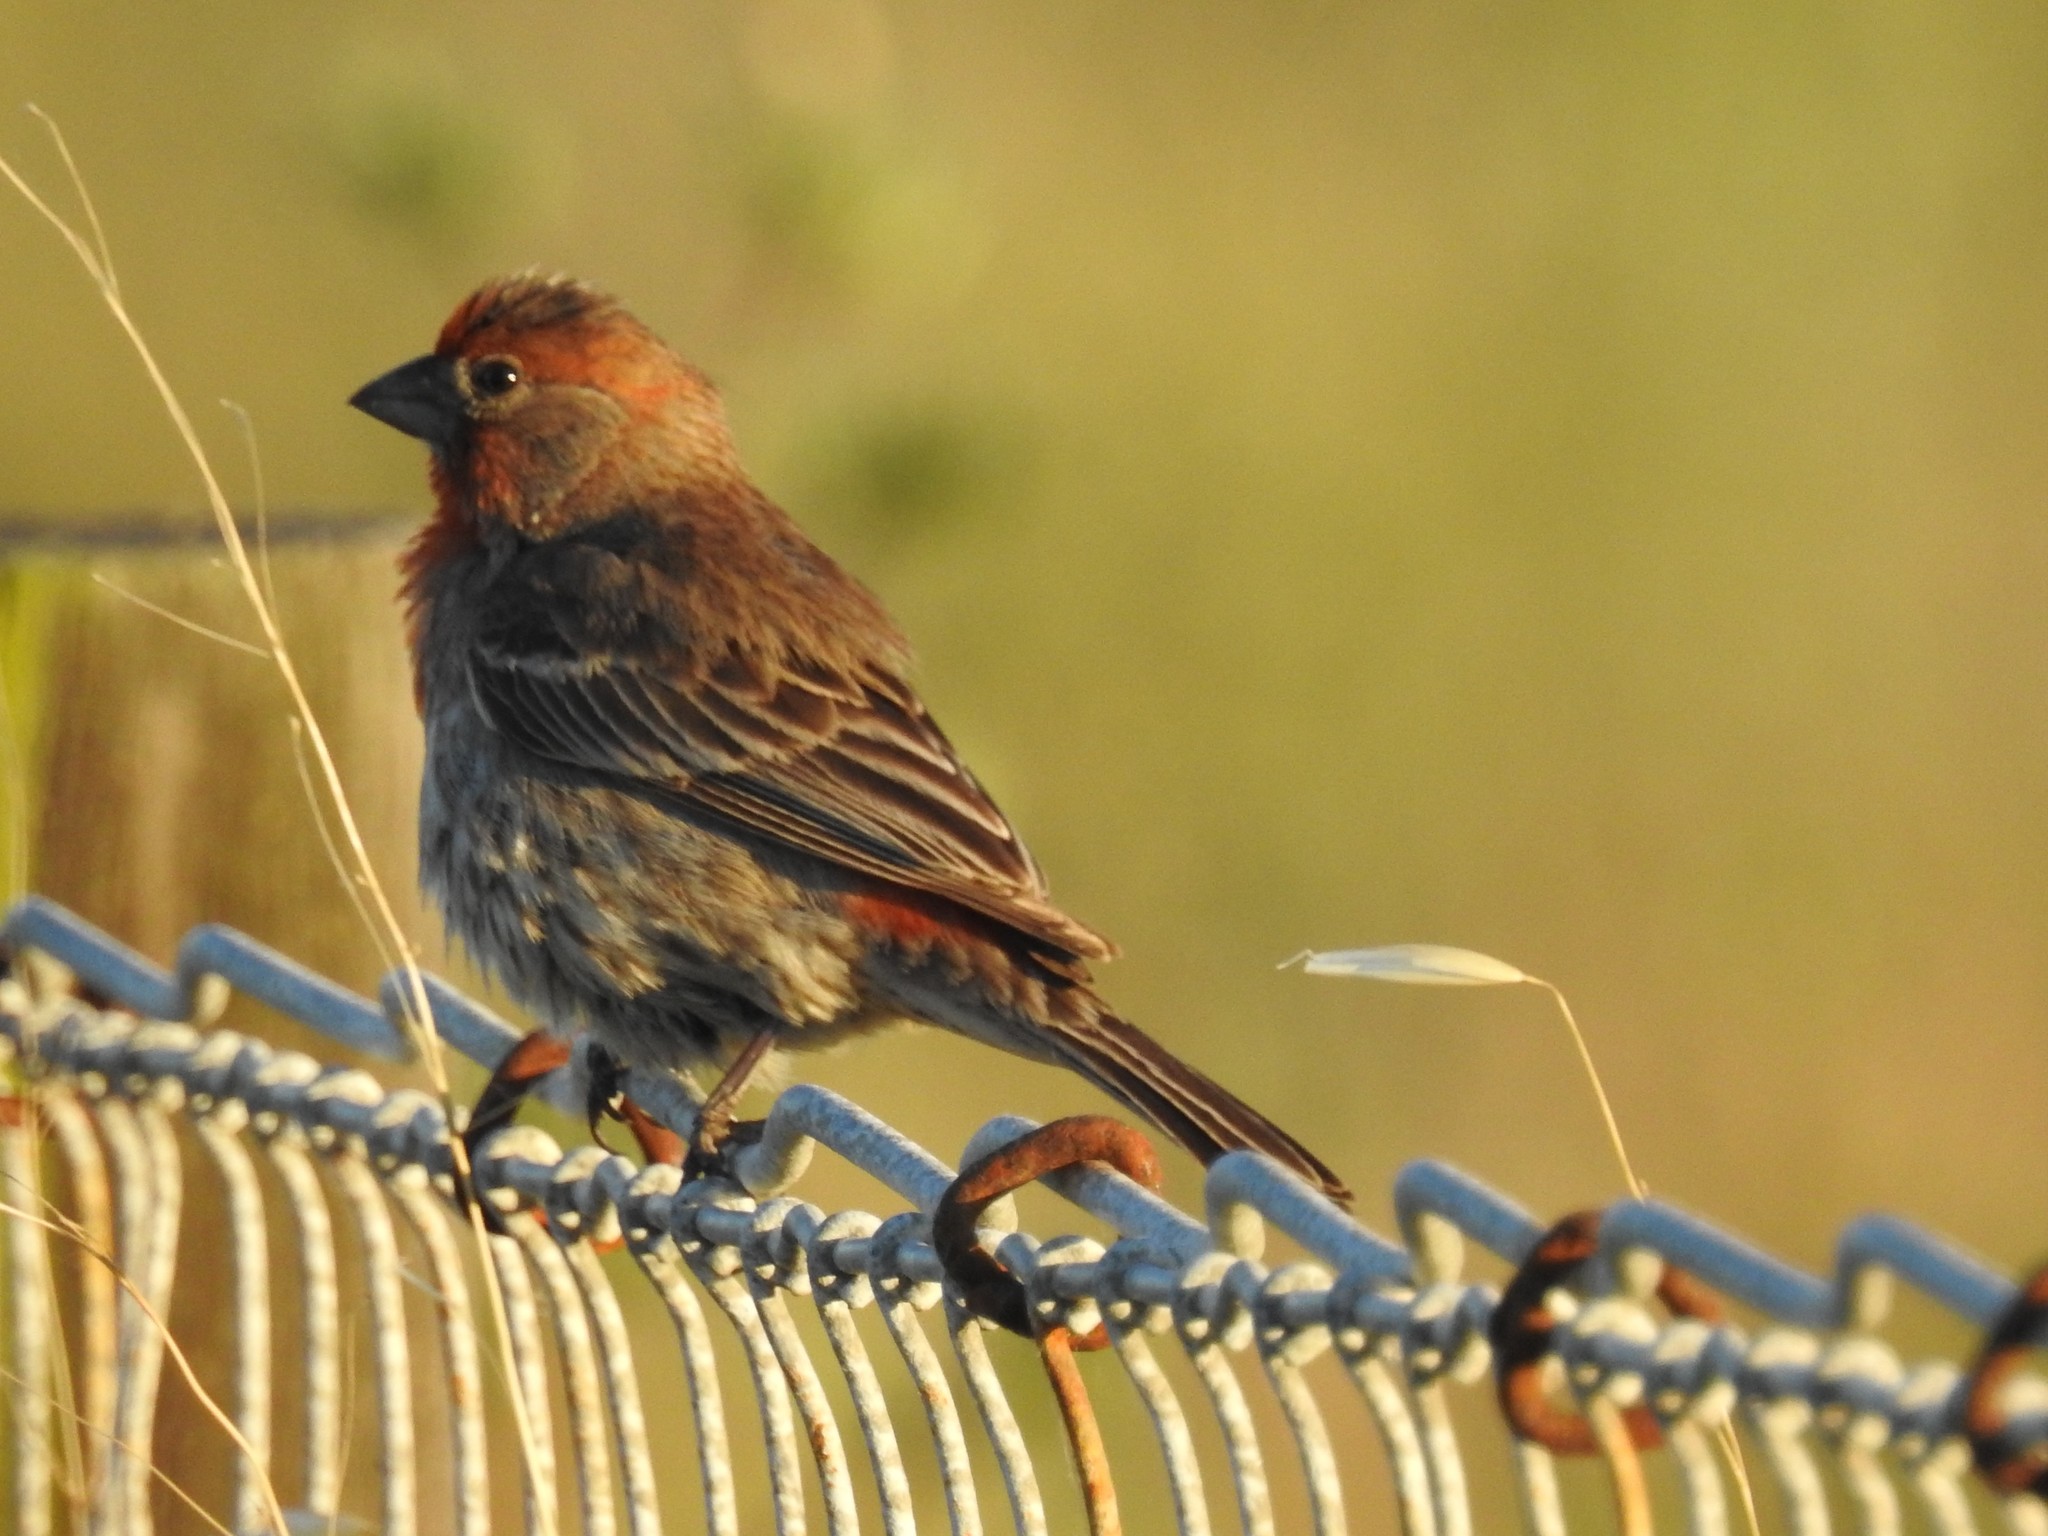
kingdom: Animalia
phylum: Chordata
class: Aves
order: Passeriformes
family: Fringillidae
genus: Haemorhous
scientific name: Haemorhous mexicanus
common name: House finch
